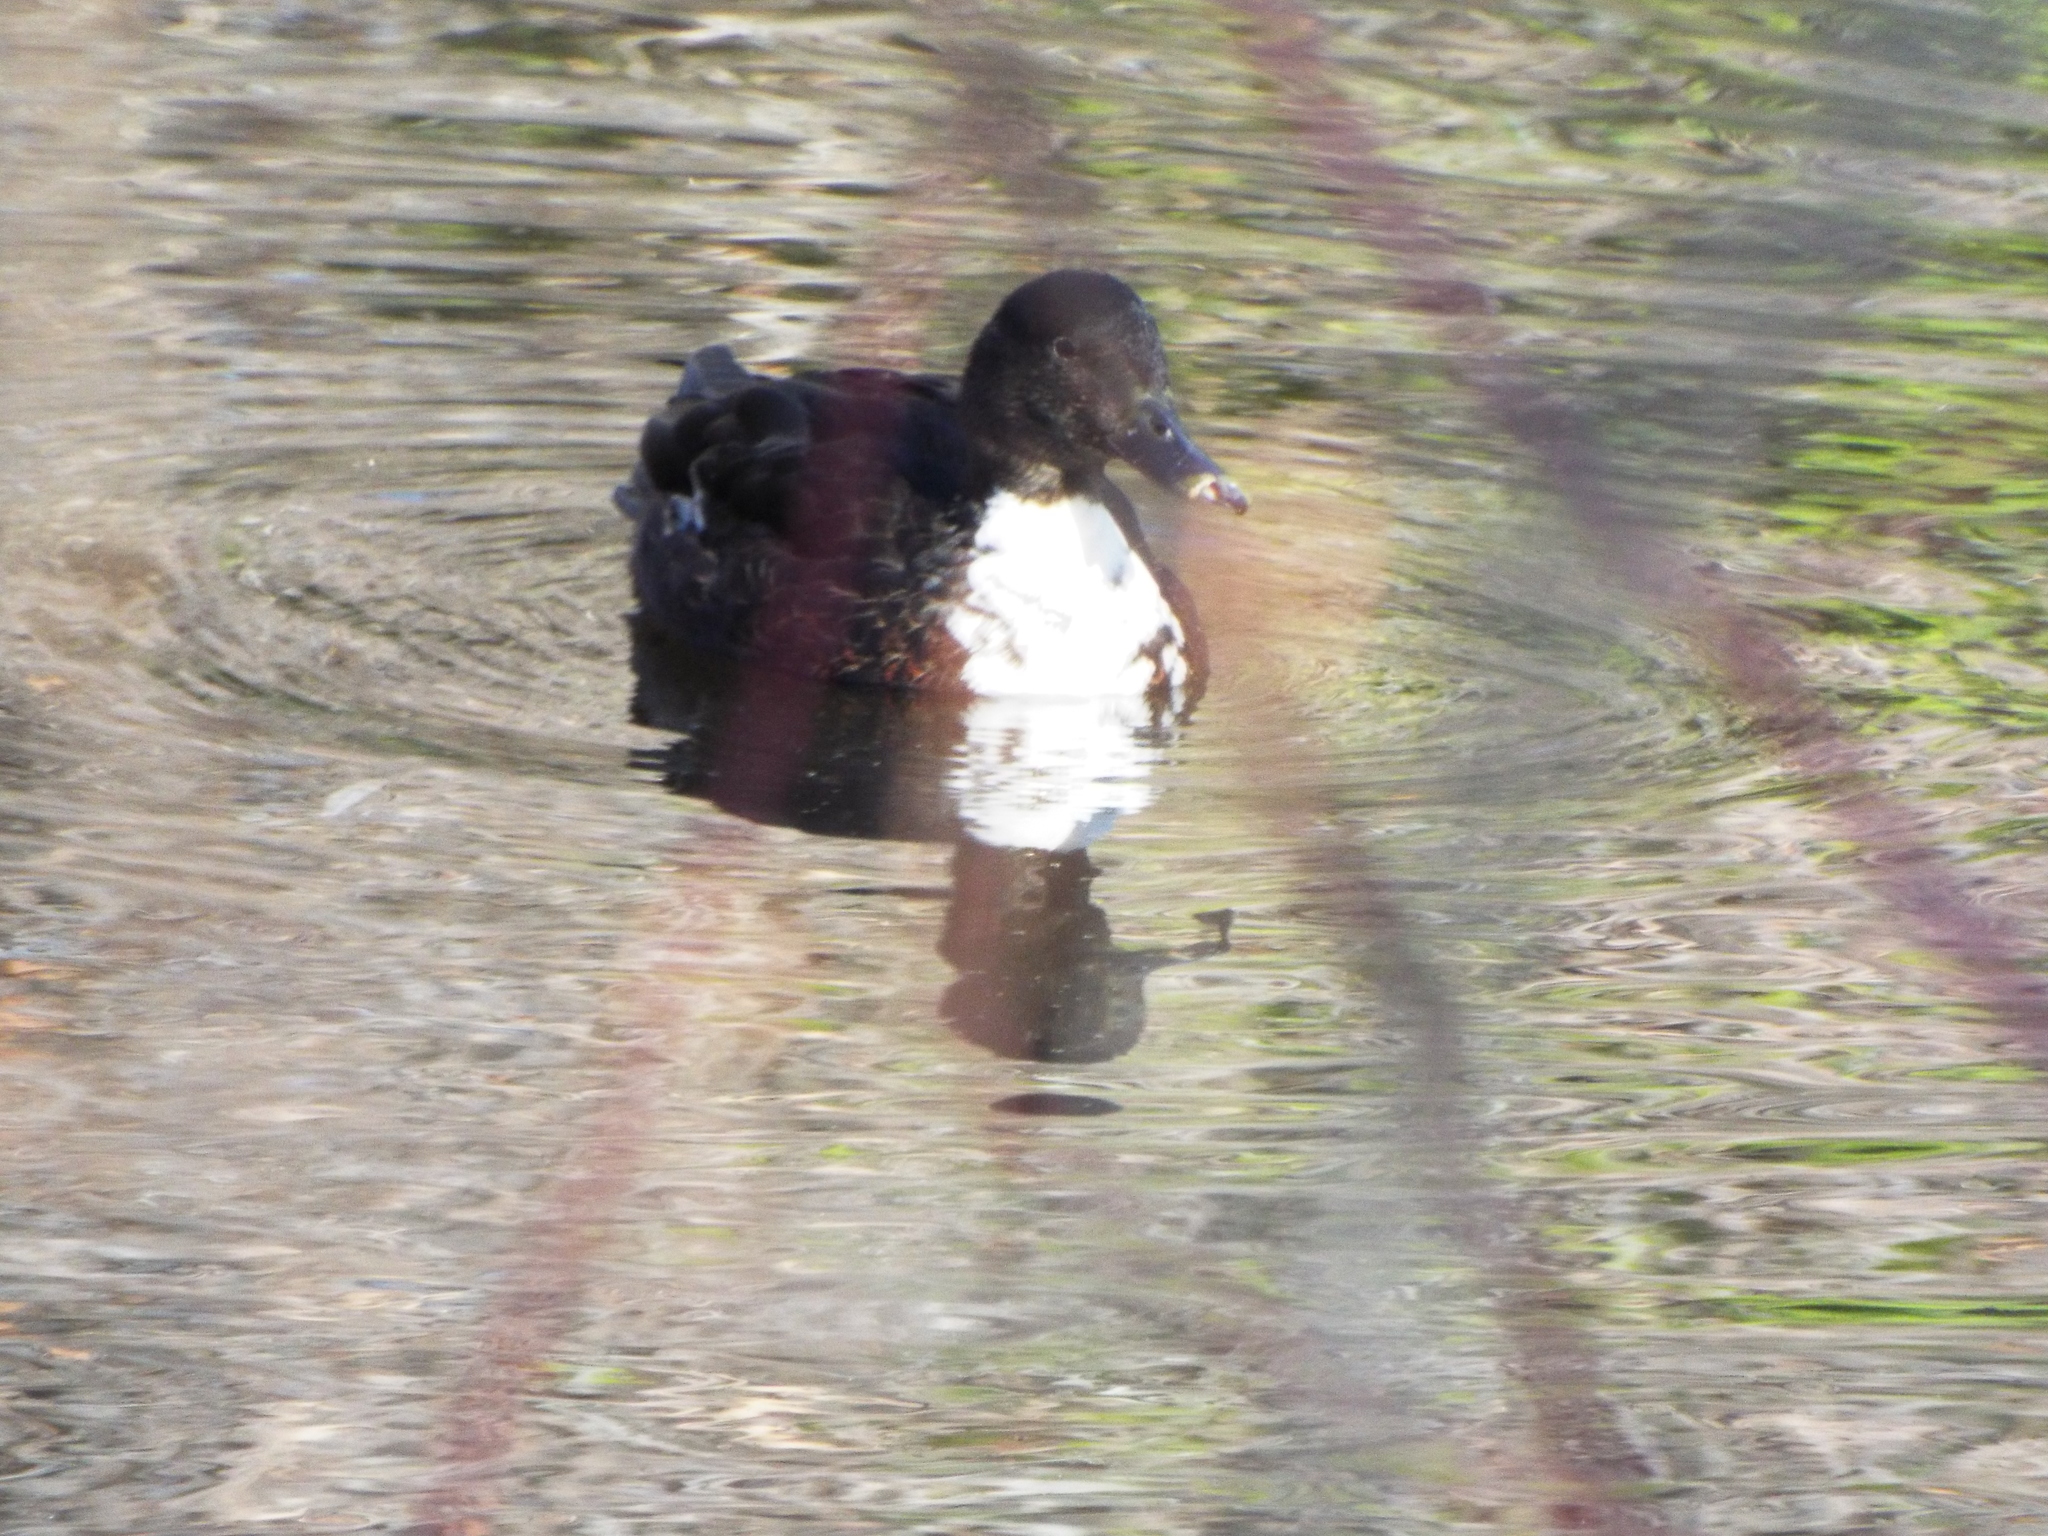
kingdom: Animalia
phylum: Chordata
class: Aves
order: Anseriformes
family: Anatidae
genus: Anas
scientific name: Anas platyrhynchos
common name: Mallard
